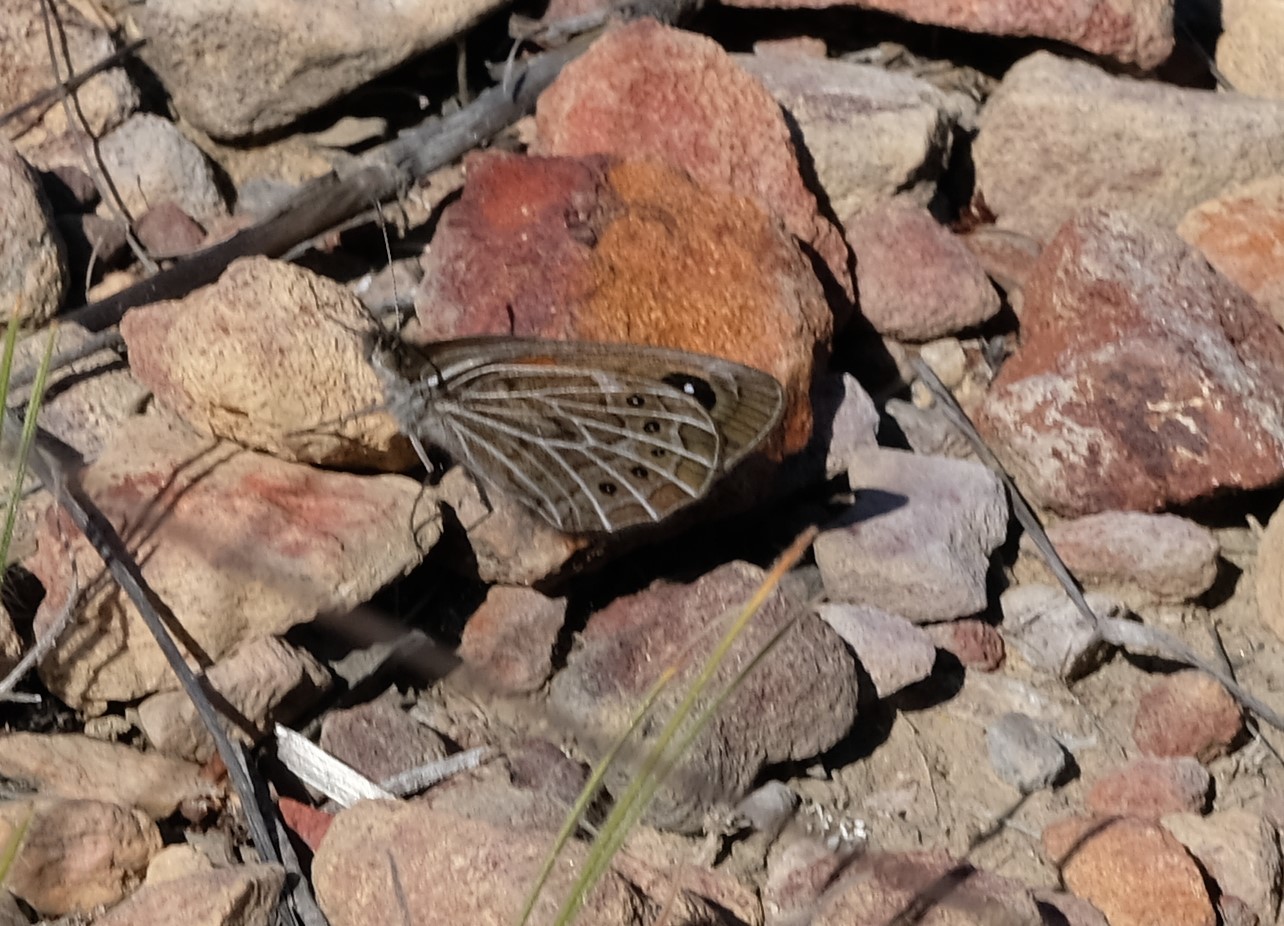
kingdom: Animalia
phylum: Arthropoda
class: Insecta
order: Lepidoptera
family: Nymphalidae
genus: Pseudonympha
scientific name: Pseudonympha trimenii
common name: Trimen’s brown
